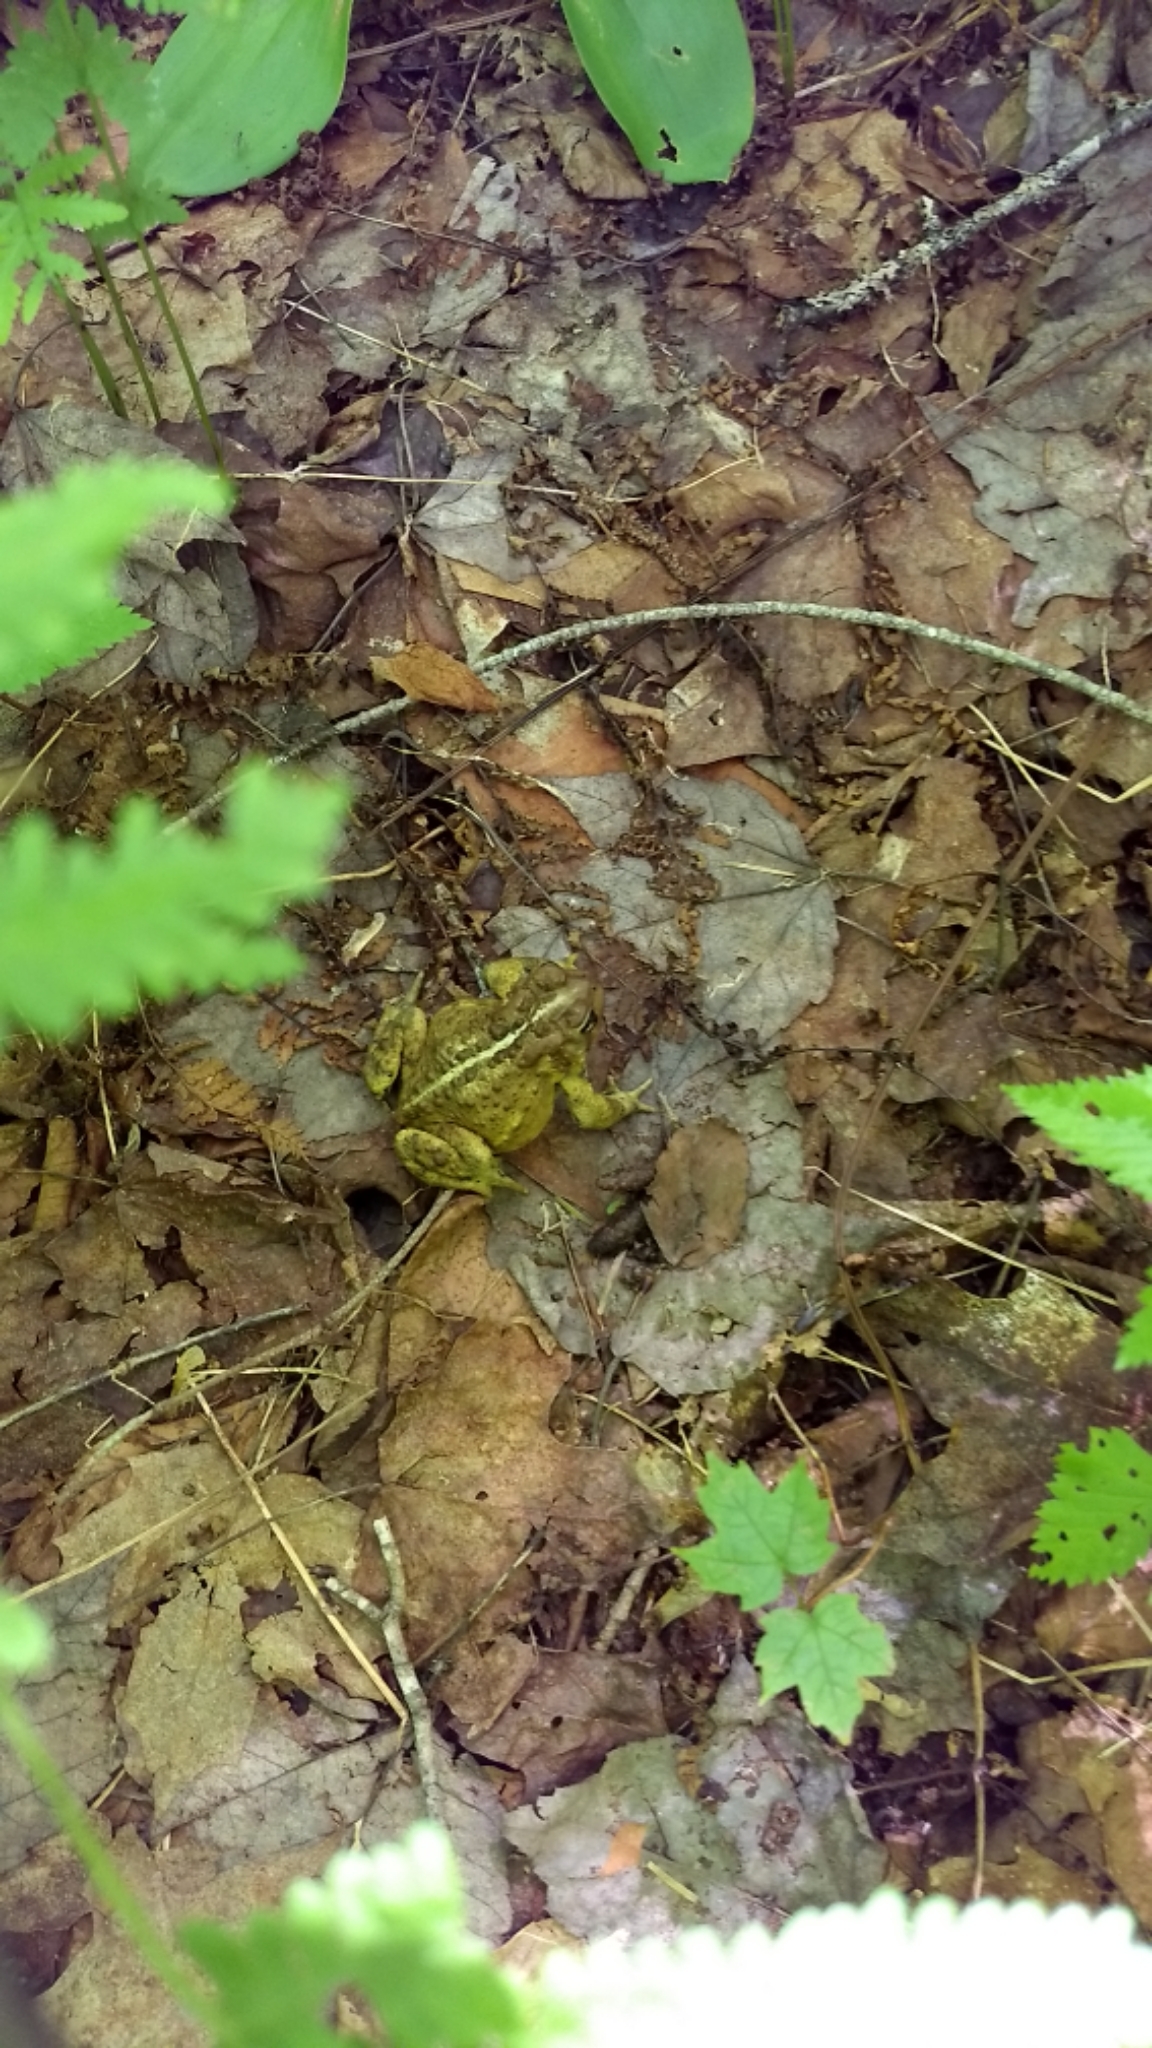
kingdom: Animalia
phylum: Chordata
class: Amphibia
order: Anura
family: Bufonidae
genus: Anaxyrus
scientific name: Anaxyrus americanus
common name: American toad
